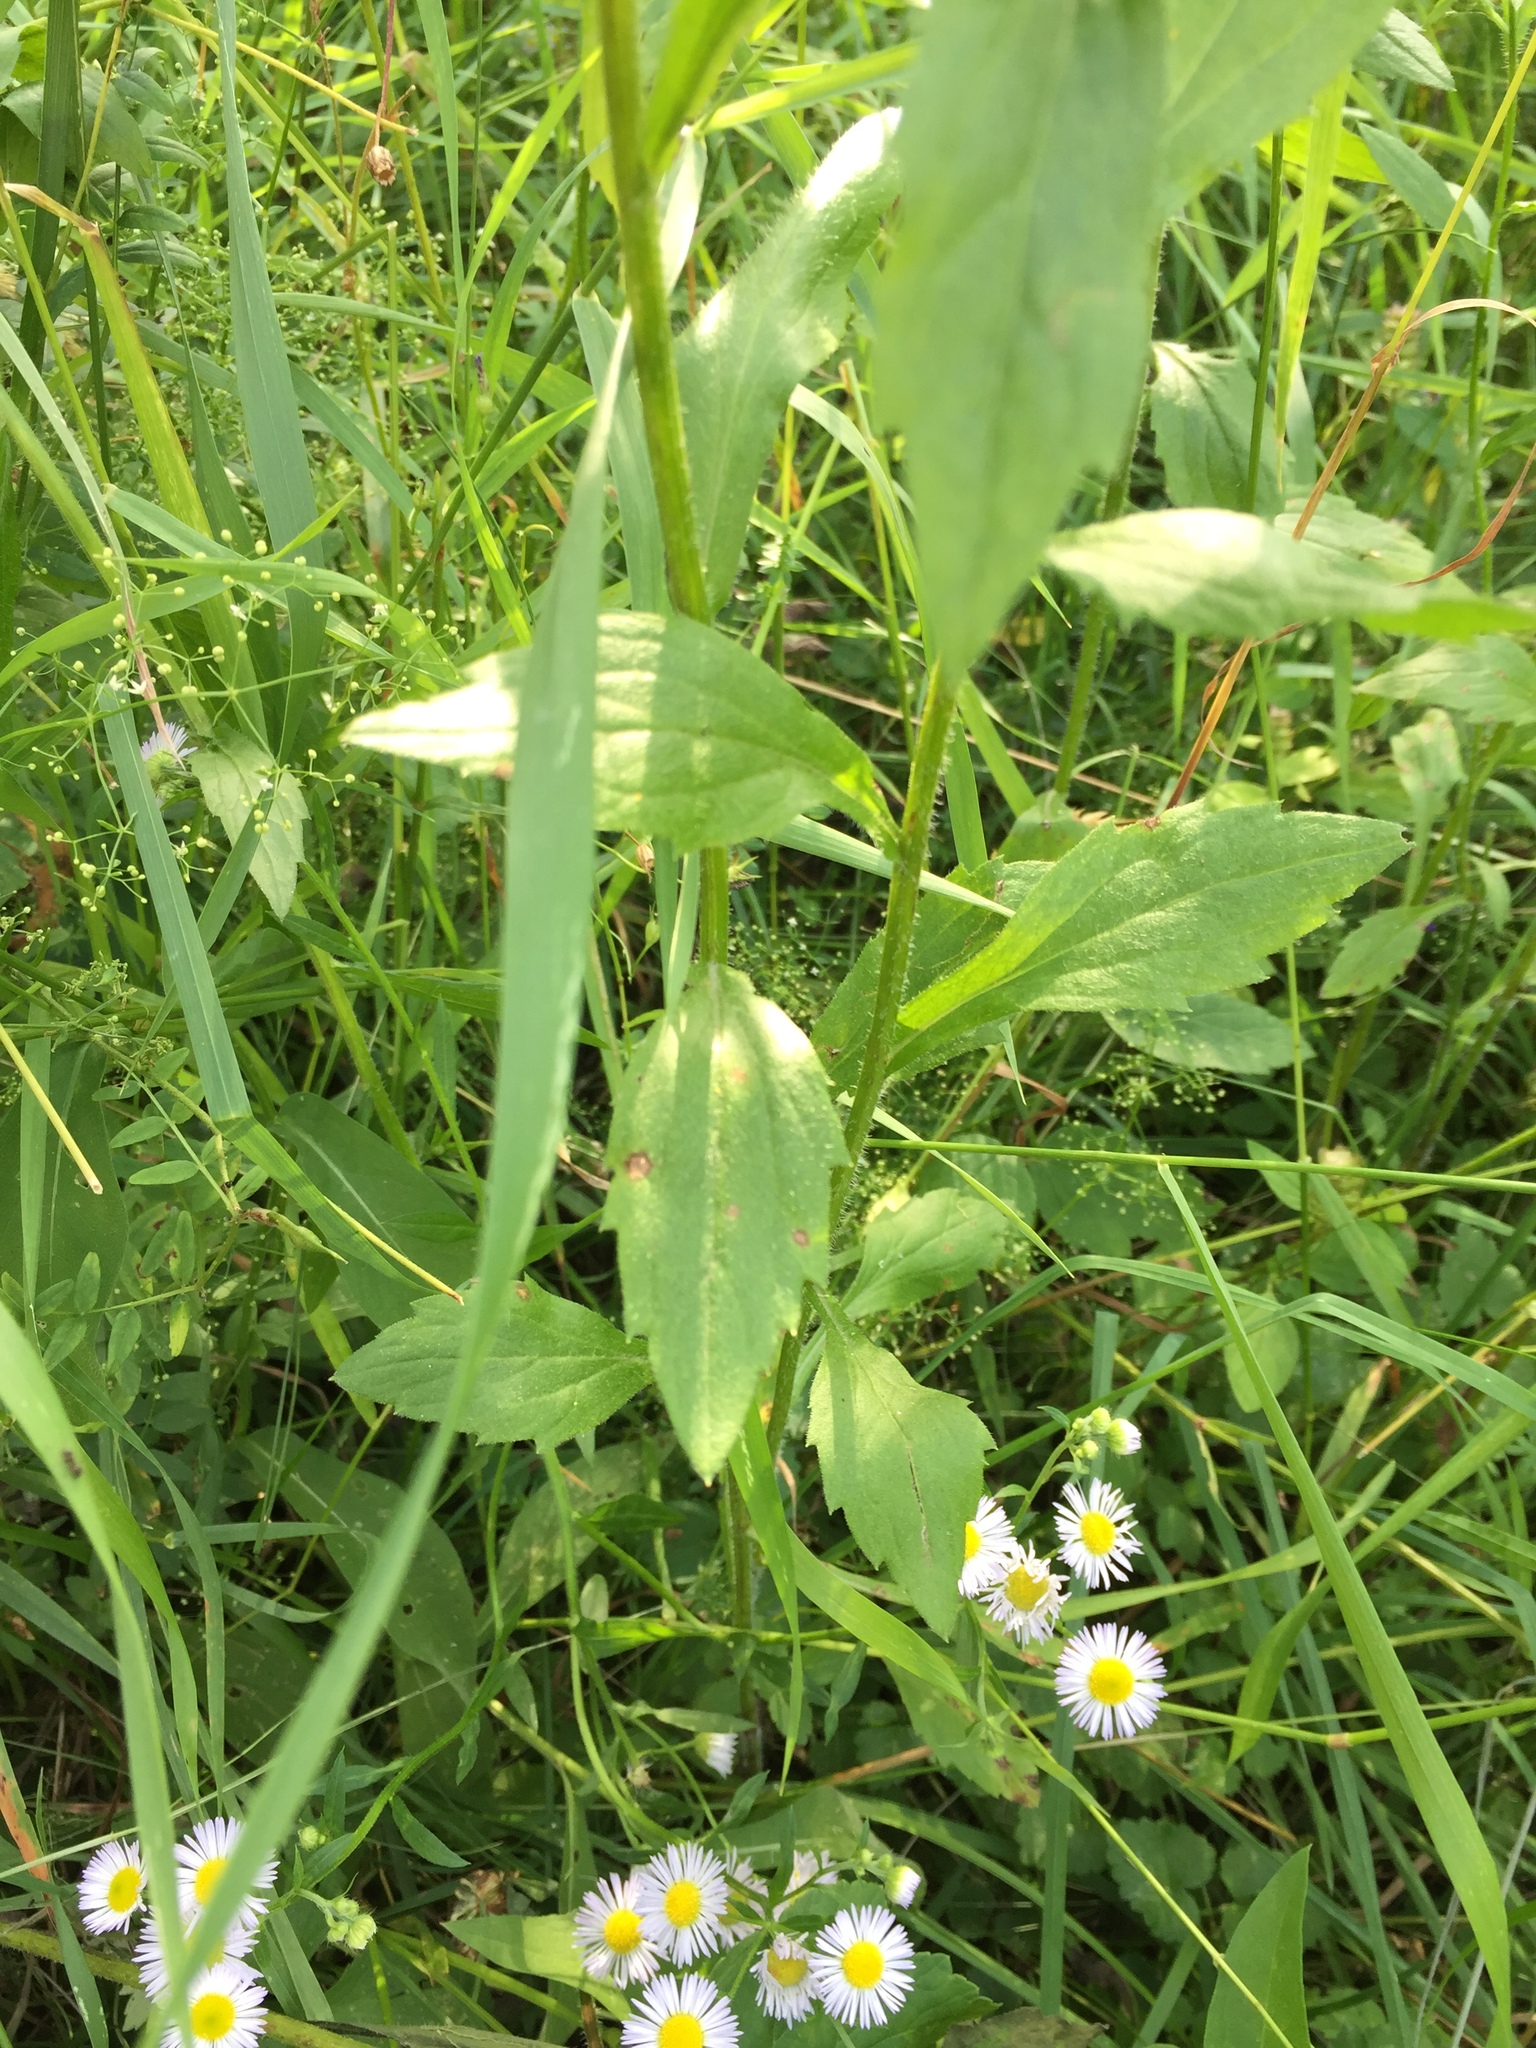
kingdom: Plantae
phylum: Tracheophyta
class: Magnoliopsida
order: Asterales
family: Asteraceae
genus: Erigeron
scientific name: Erigeron annuus
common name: Tall fleabane
